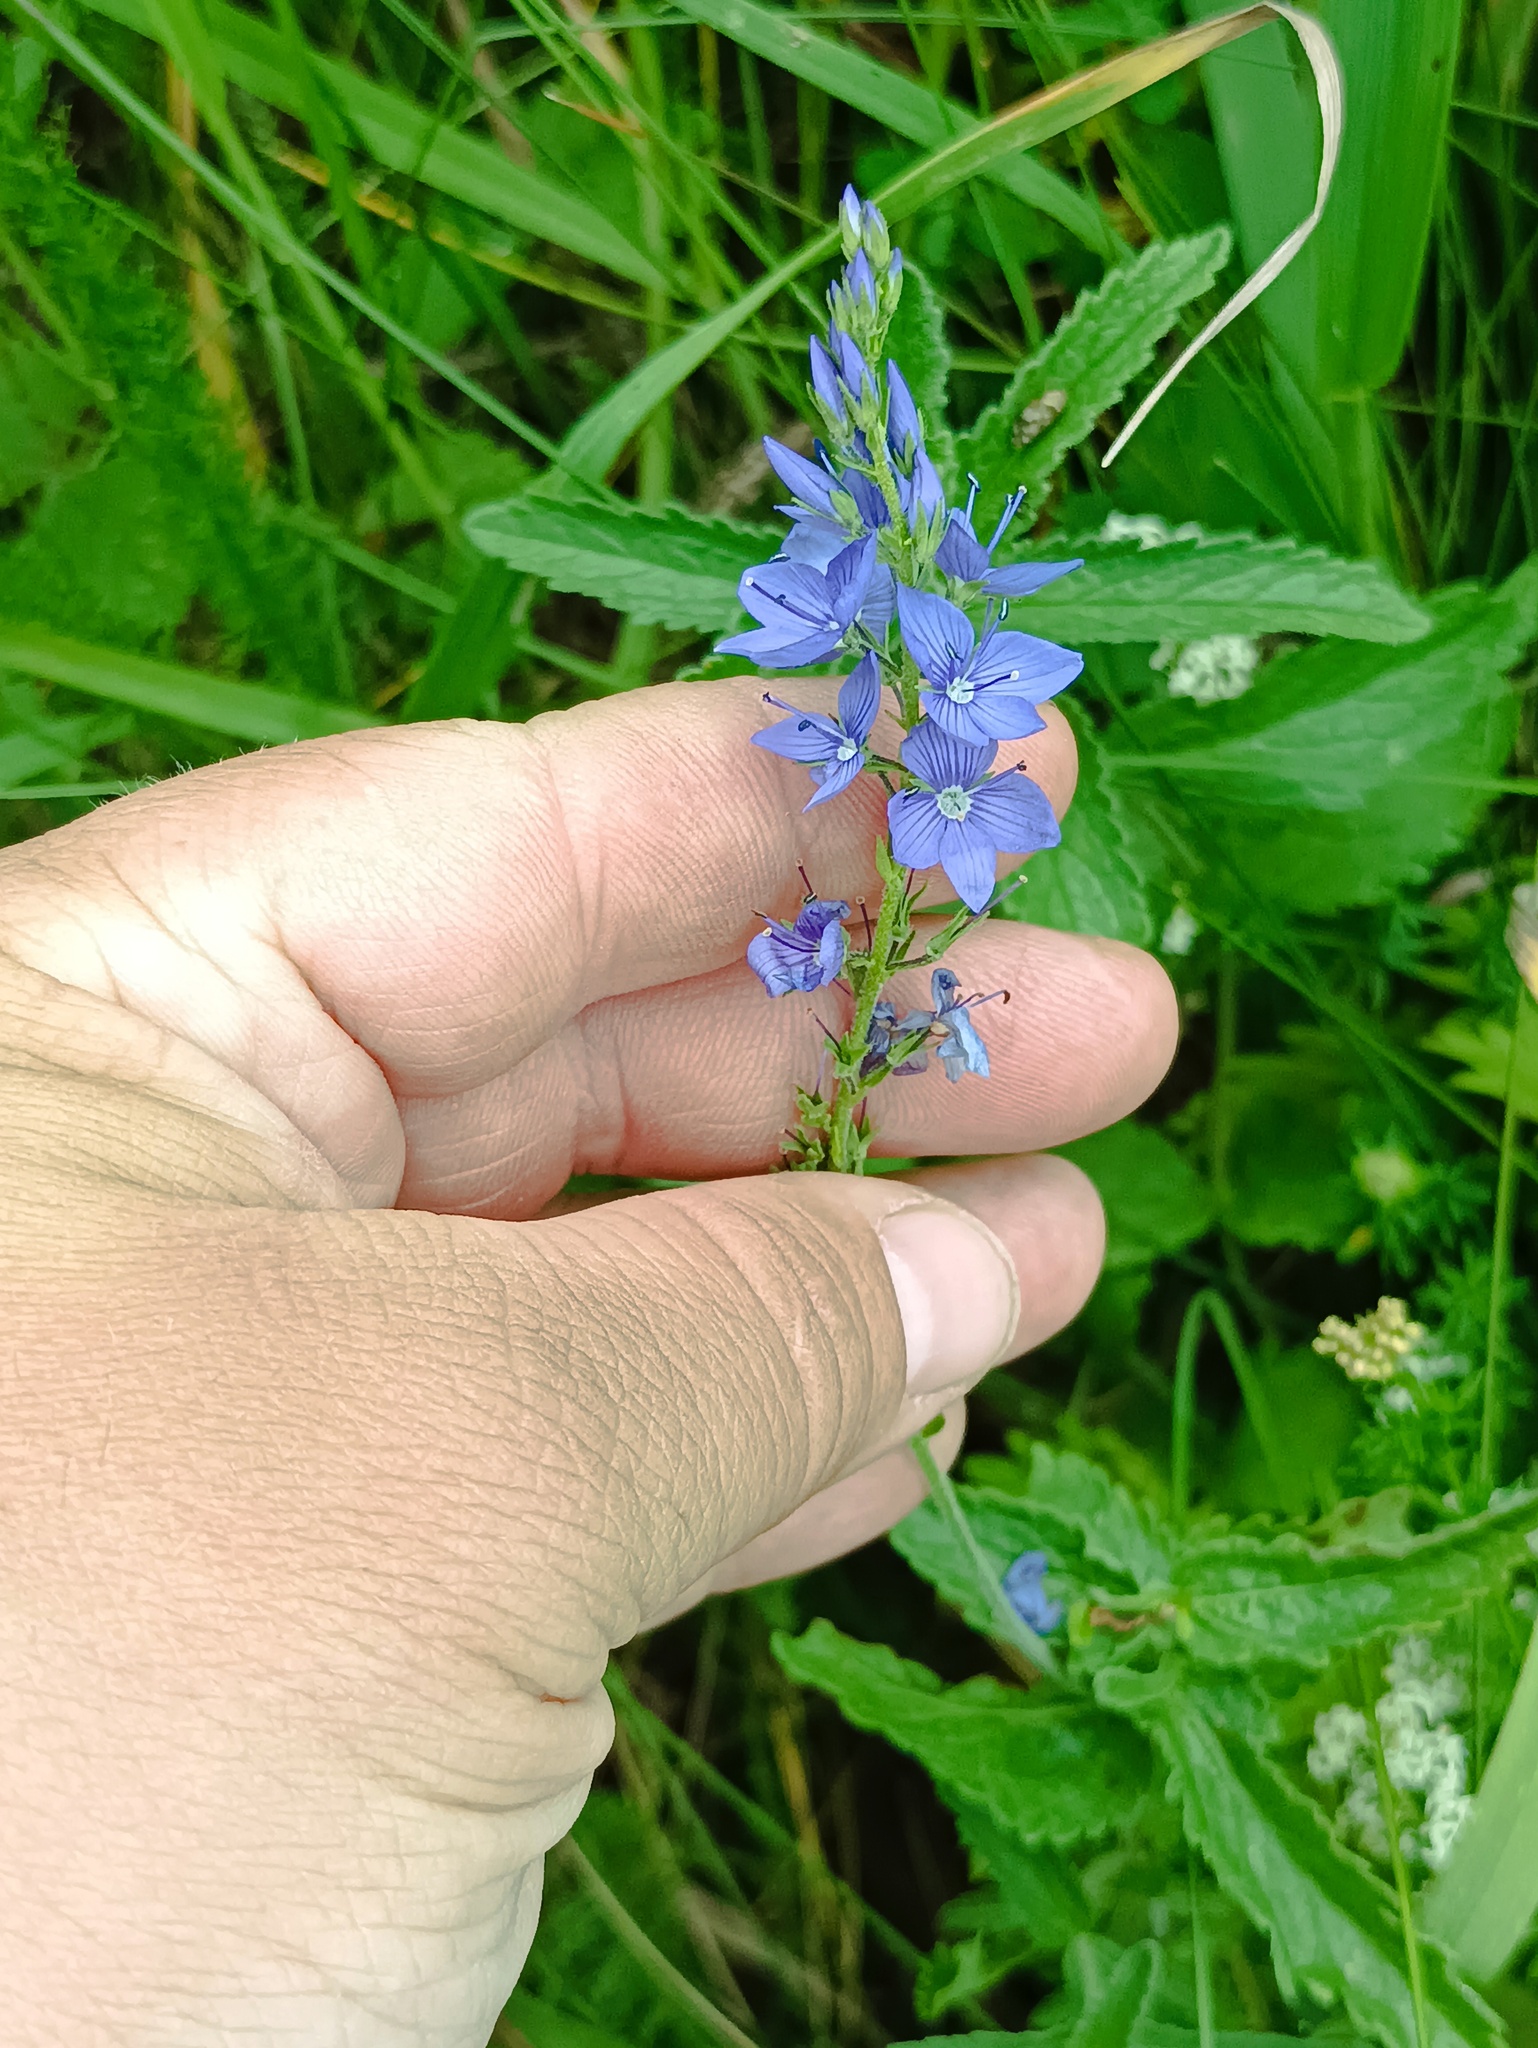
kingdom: Plantae
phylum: Tracheophyta
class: Magnoliopsida
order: Lamiales
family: Plantaginaceae
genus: Veronica
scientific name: Veronica teucrium
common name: Large speedwell
